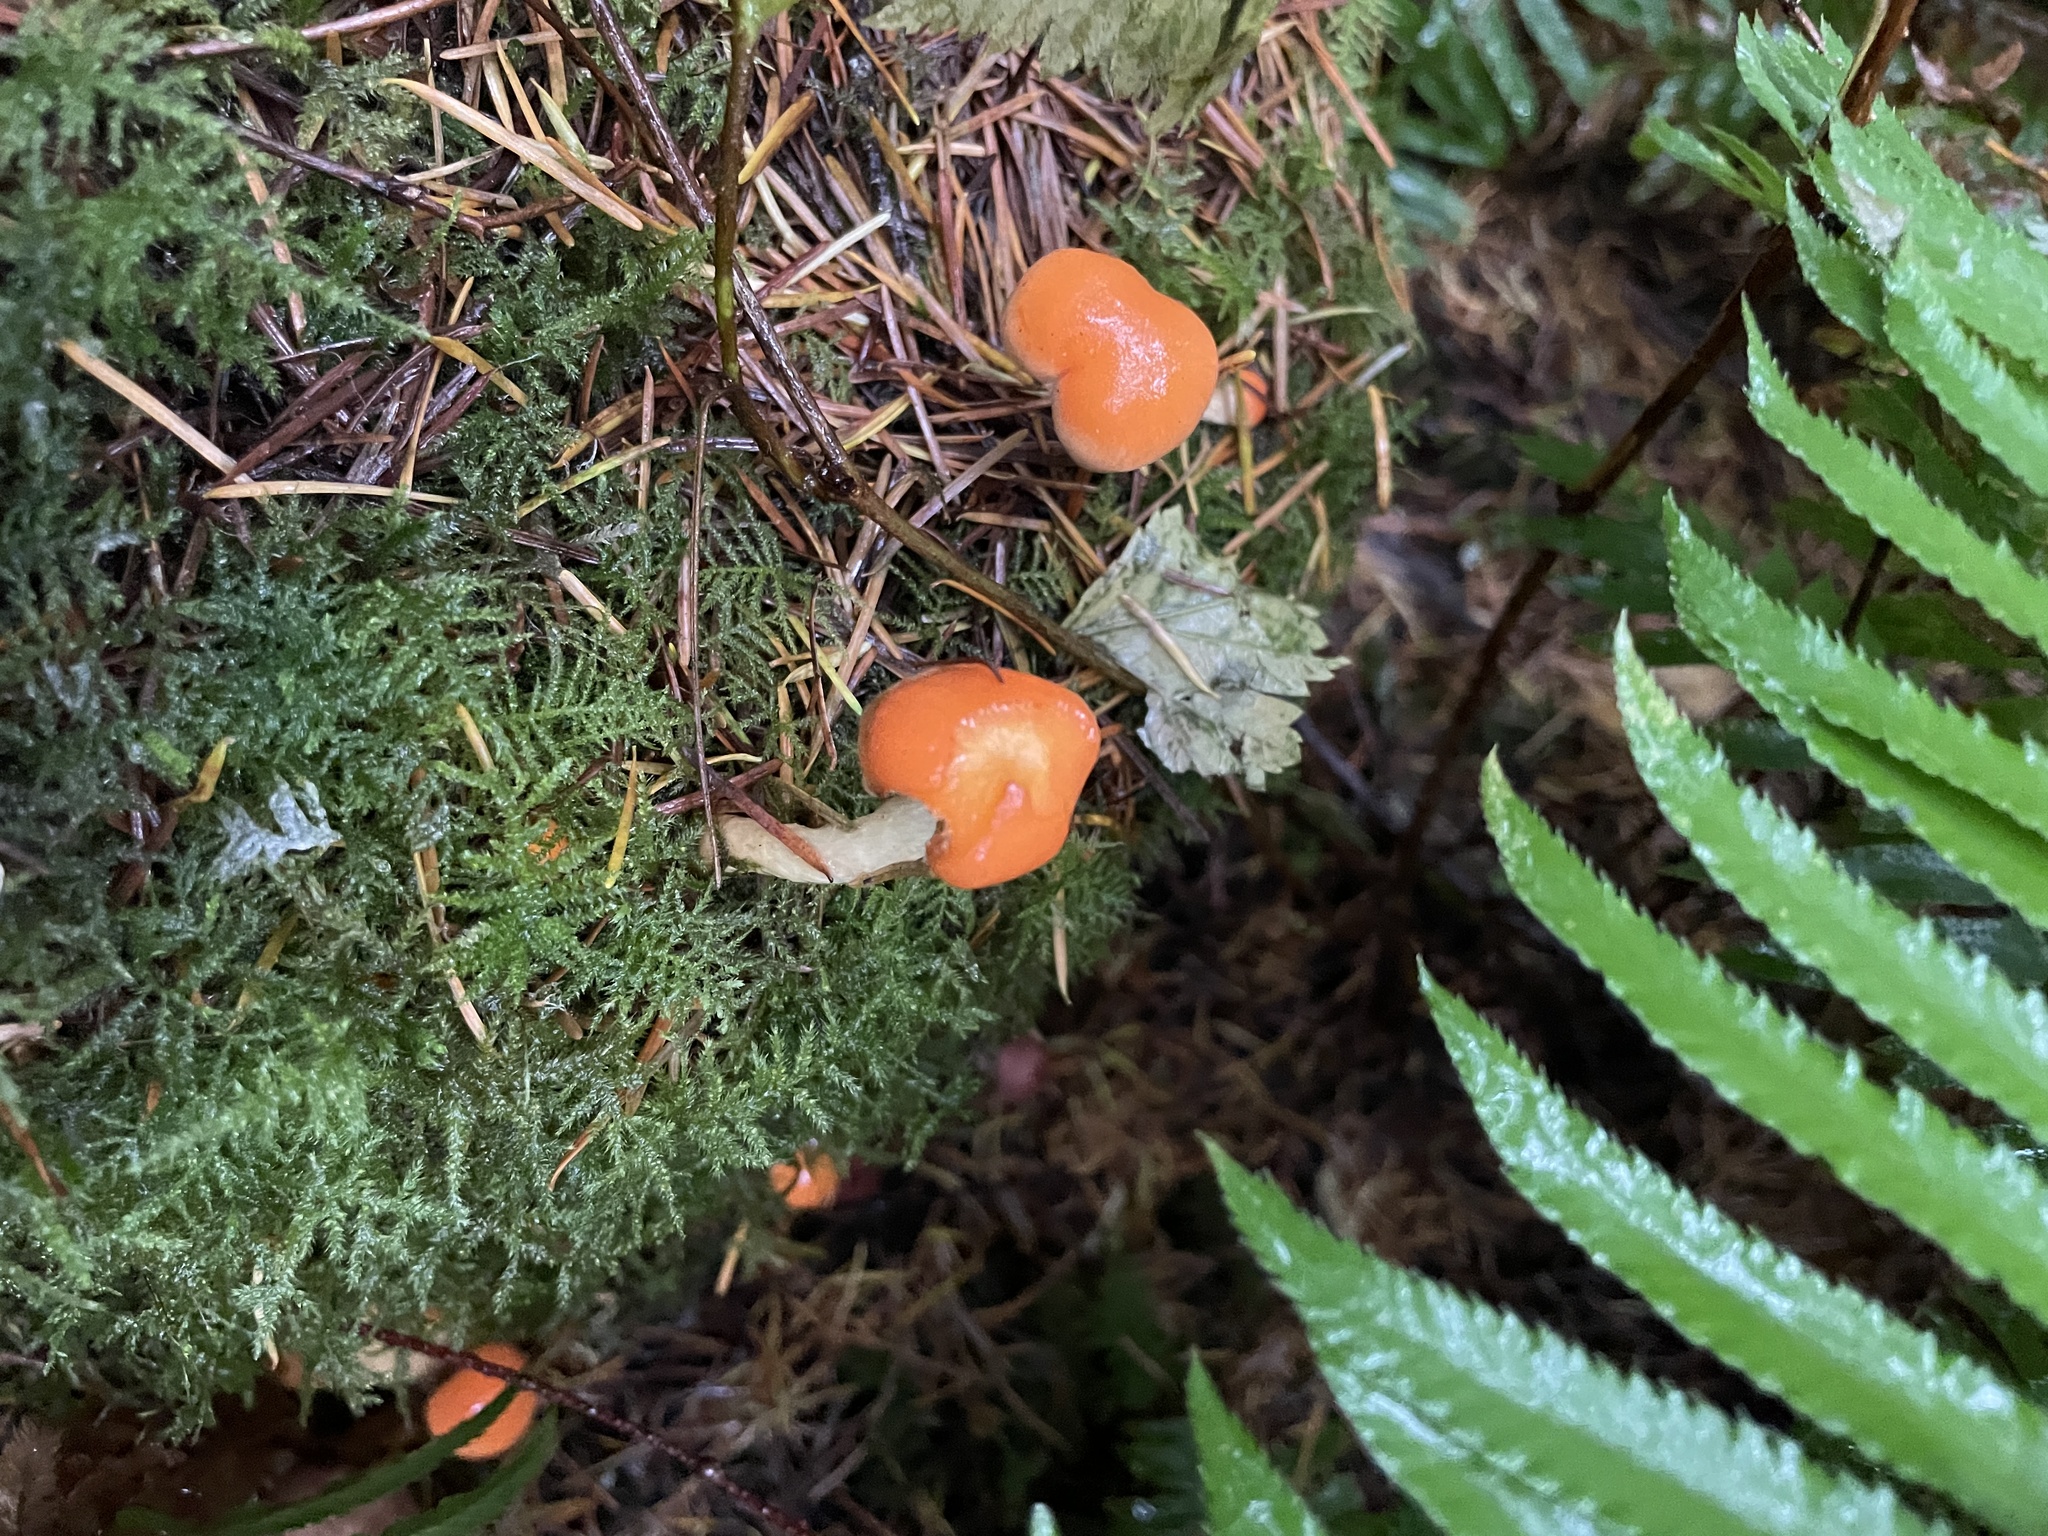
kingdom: Fungi
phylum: Basidiomycota
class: Agaricomycetes
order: Agaricales
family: Strophariaceae
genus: Pyrrhulomyces
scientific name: Pyrrhulomyces astragalinus
